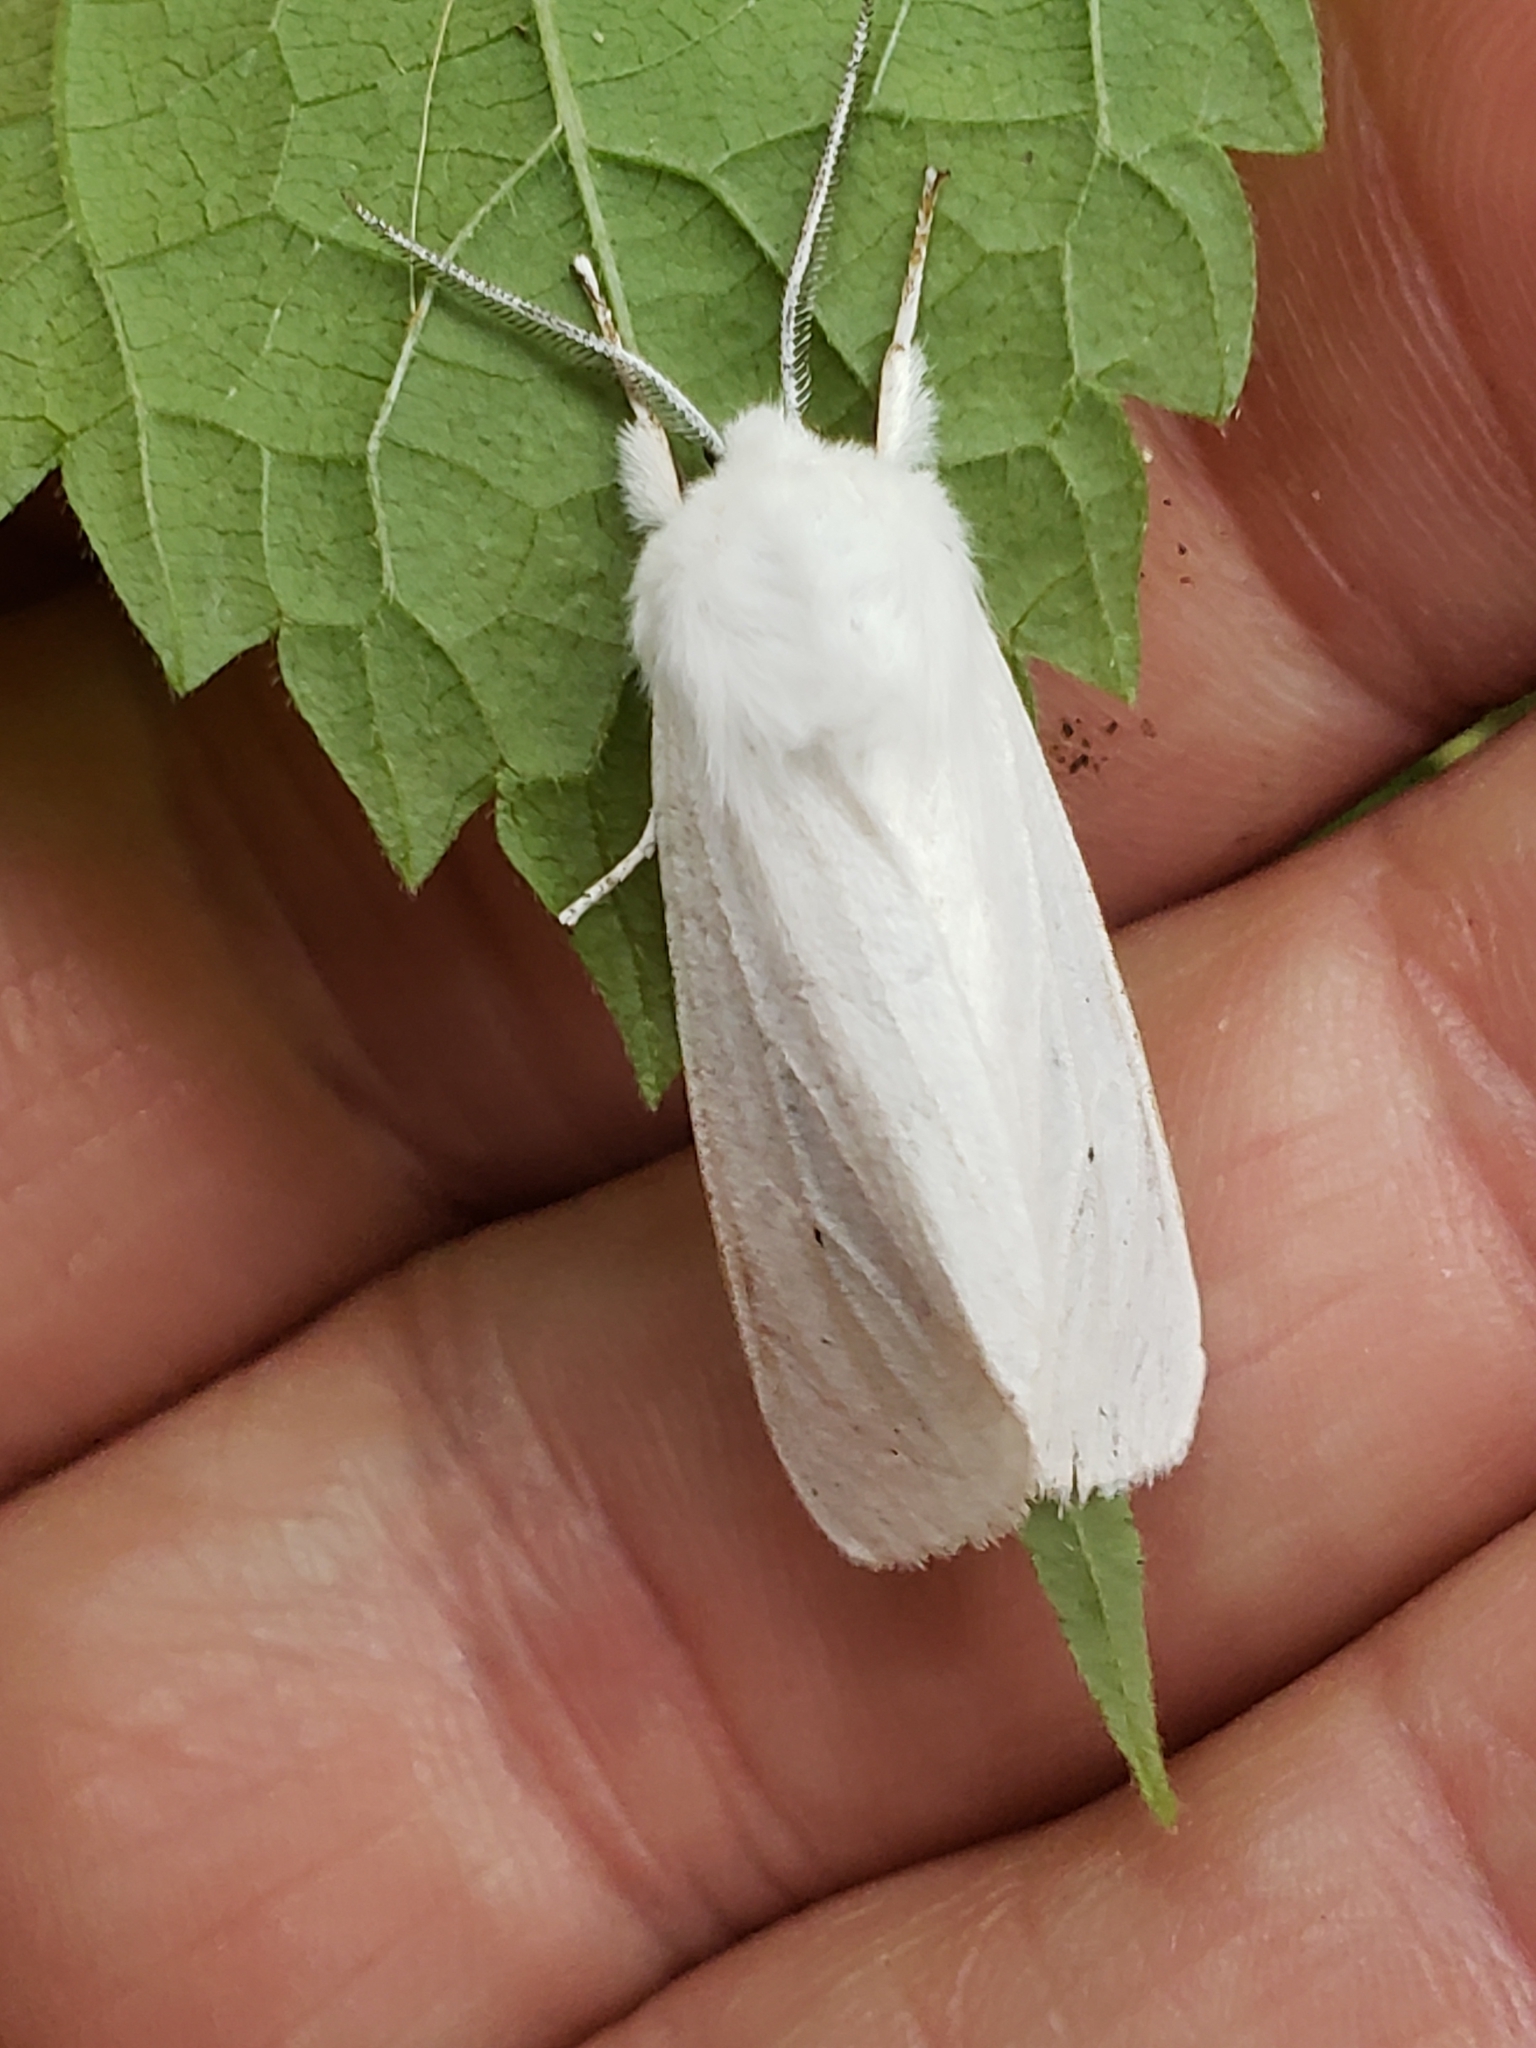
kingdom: Animalia
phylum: Arthropoda
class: Insecta
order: Lepidoptera
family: Erebidae
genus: Spilosoma
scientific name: Spilosoma virginica
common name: Virginia tiger moth
